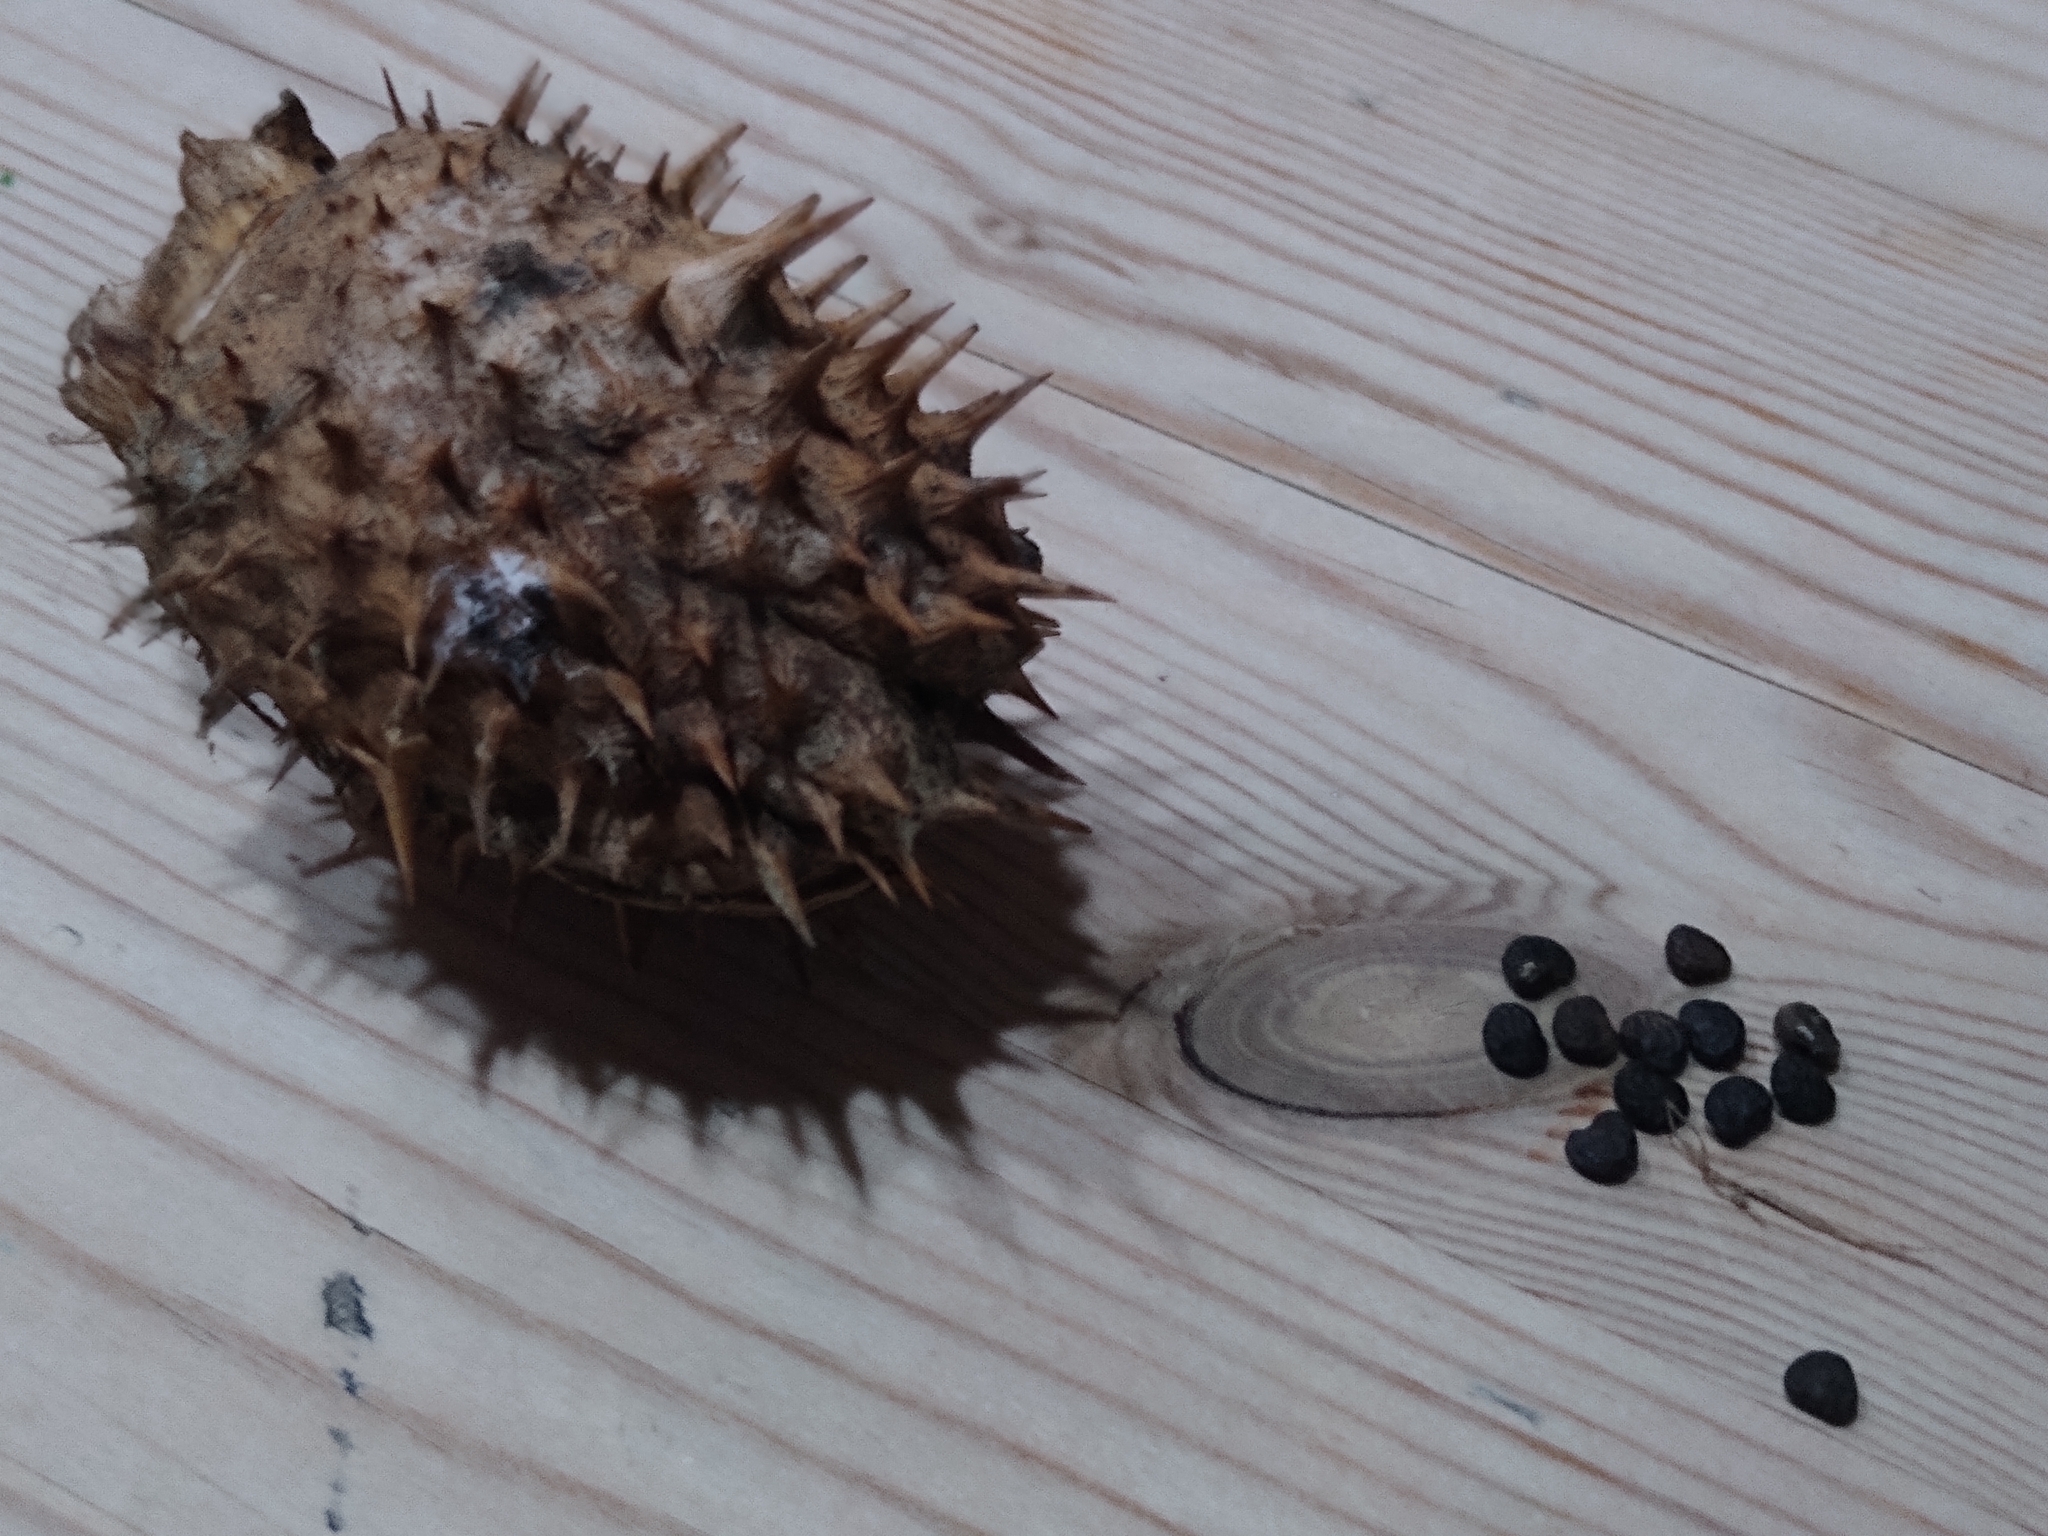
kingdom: Plantae
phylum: Tracheophyta
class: Magnoliopsida
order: Solanales
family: Solanaceae
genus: Datura
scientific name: Datura stramonium
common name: Thorn-apple
